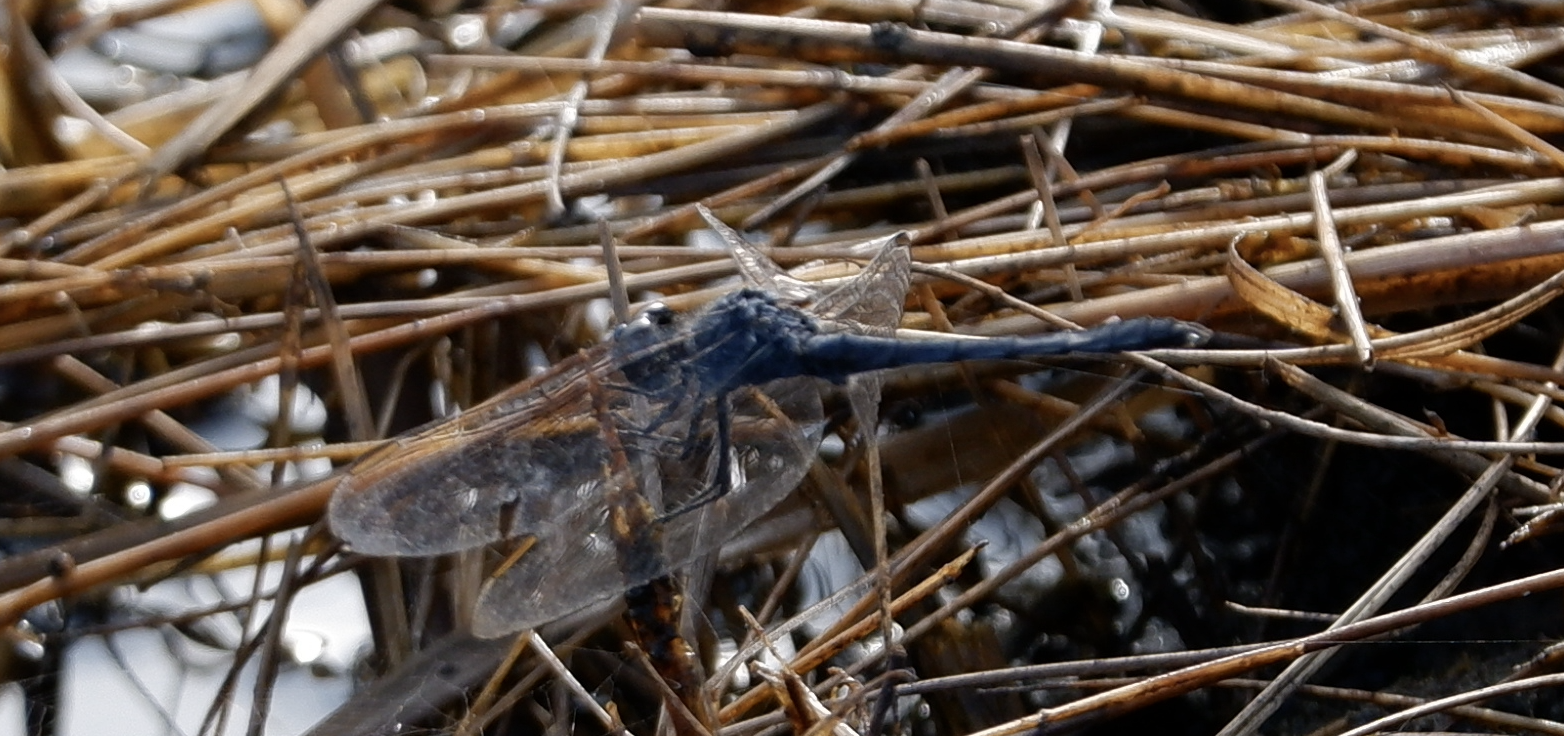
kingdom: Animalia
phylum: Arthropoda
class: Insecta
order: Odonata
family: Libellulidae
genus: Erythrodiplax
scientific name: Erythrodiplax berenice
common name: Seaside dragonlet
